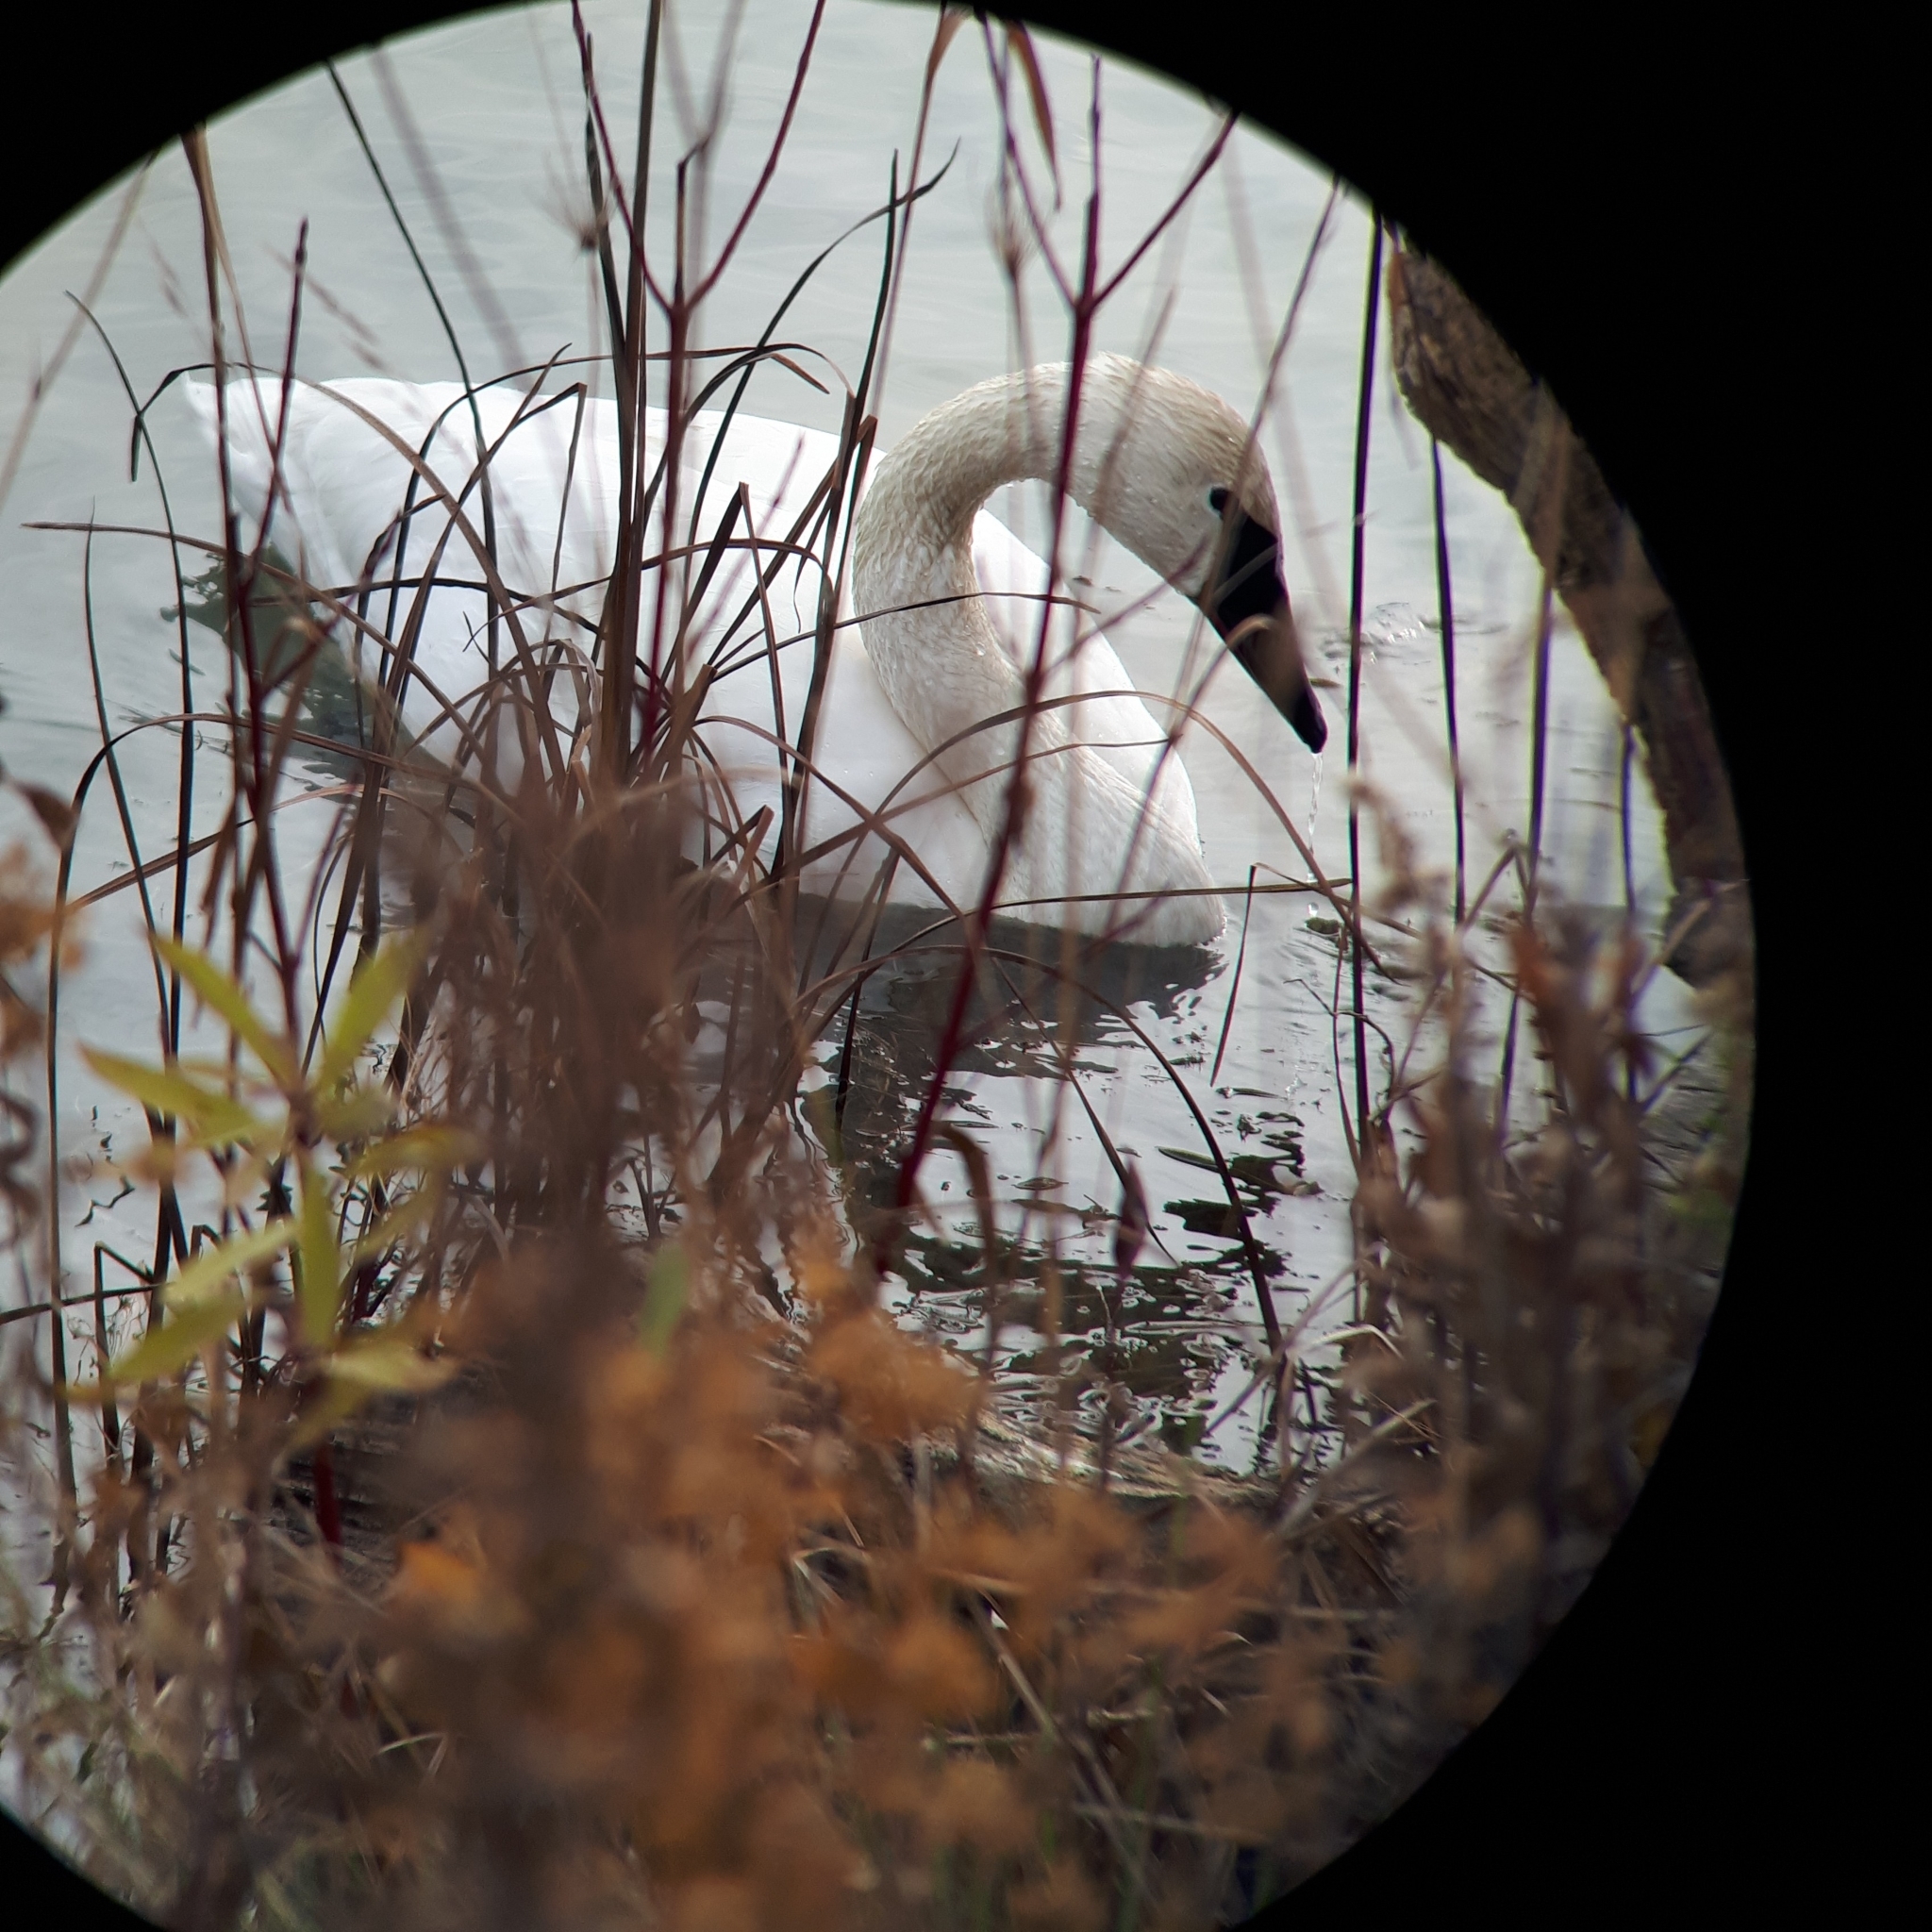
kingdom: Animalia
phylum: Chordata
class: Aves
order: Anseriformes
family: Anatidae
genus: Cygnus
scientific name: Cygnus buccinator
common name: Trumpeter swan
